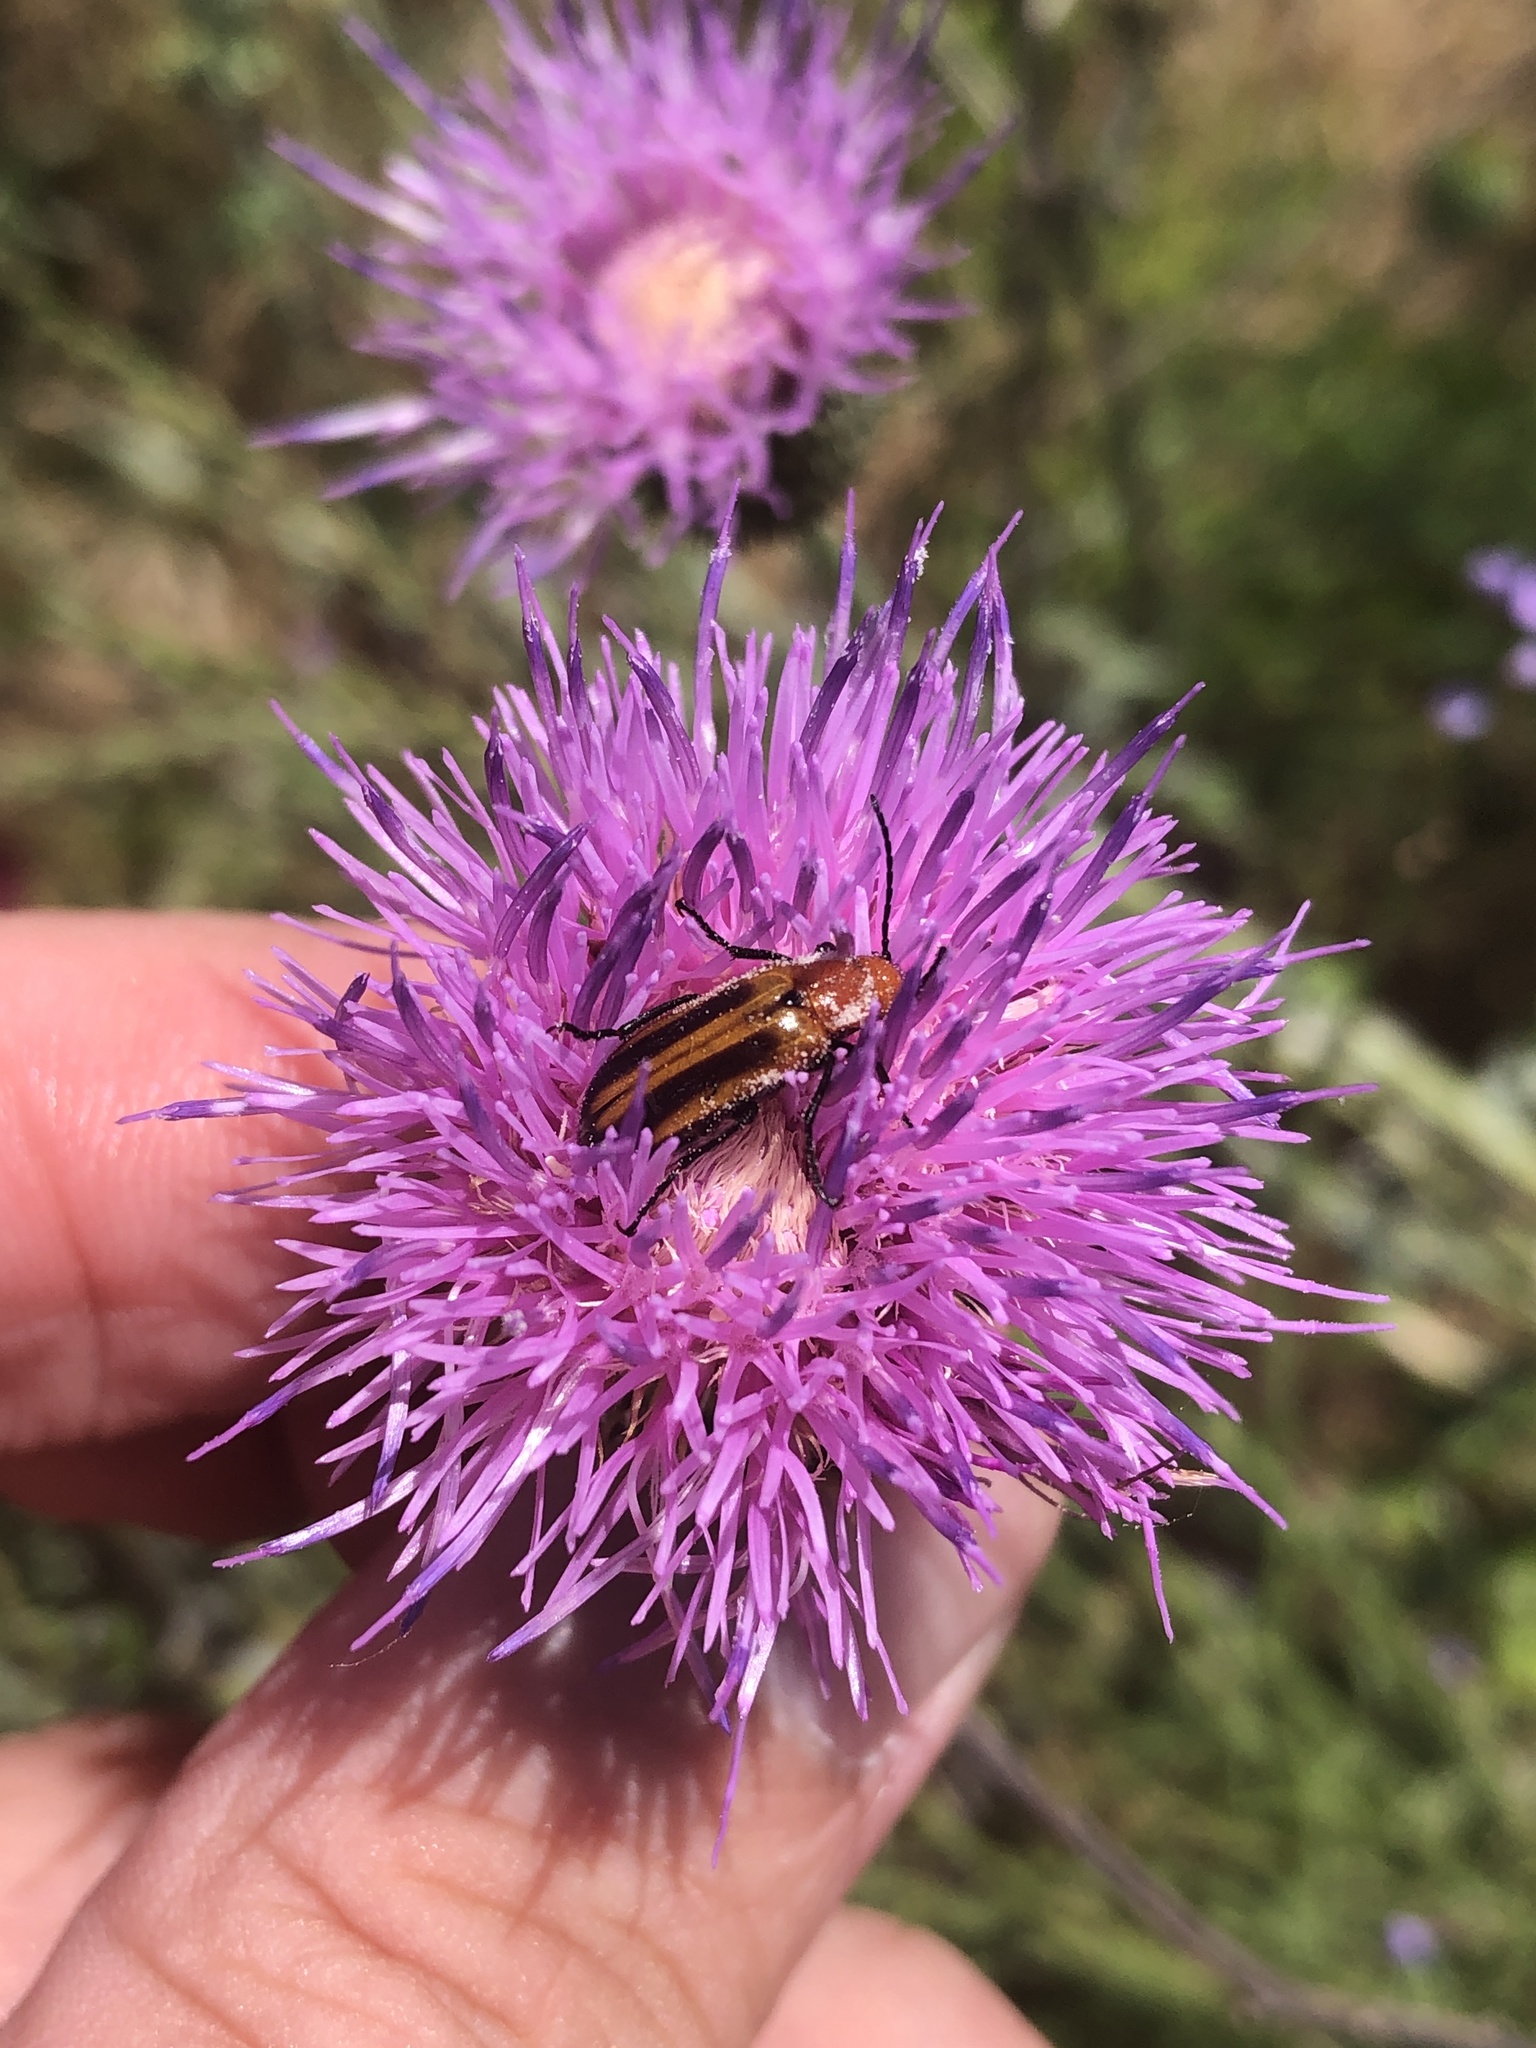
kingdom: Animalia
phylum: Arthropoda
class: Insecta
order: Coleoptera
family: Meloidae
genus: Nemognatha
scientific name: Nemognatha piazata
